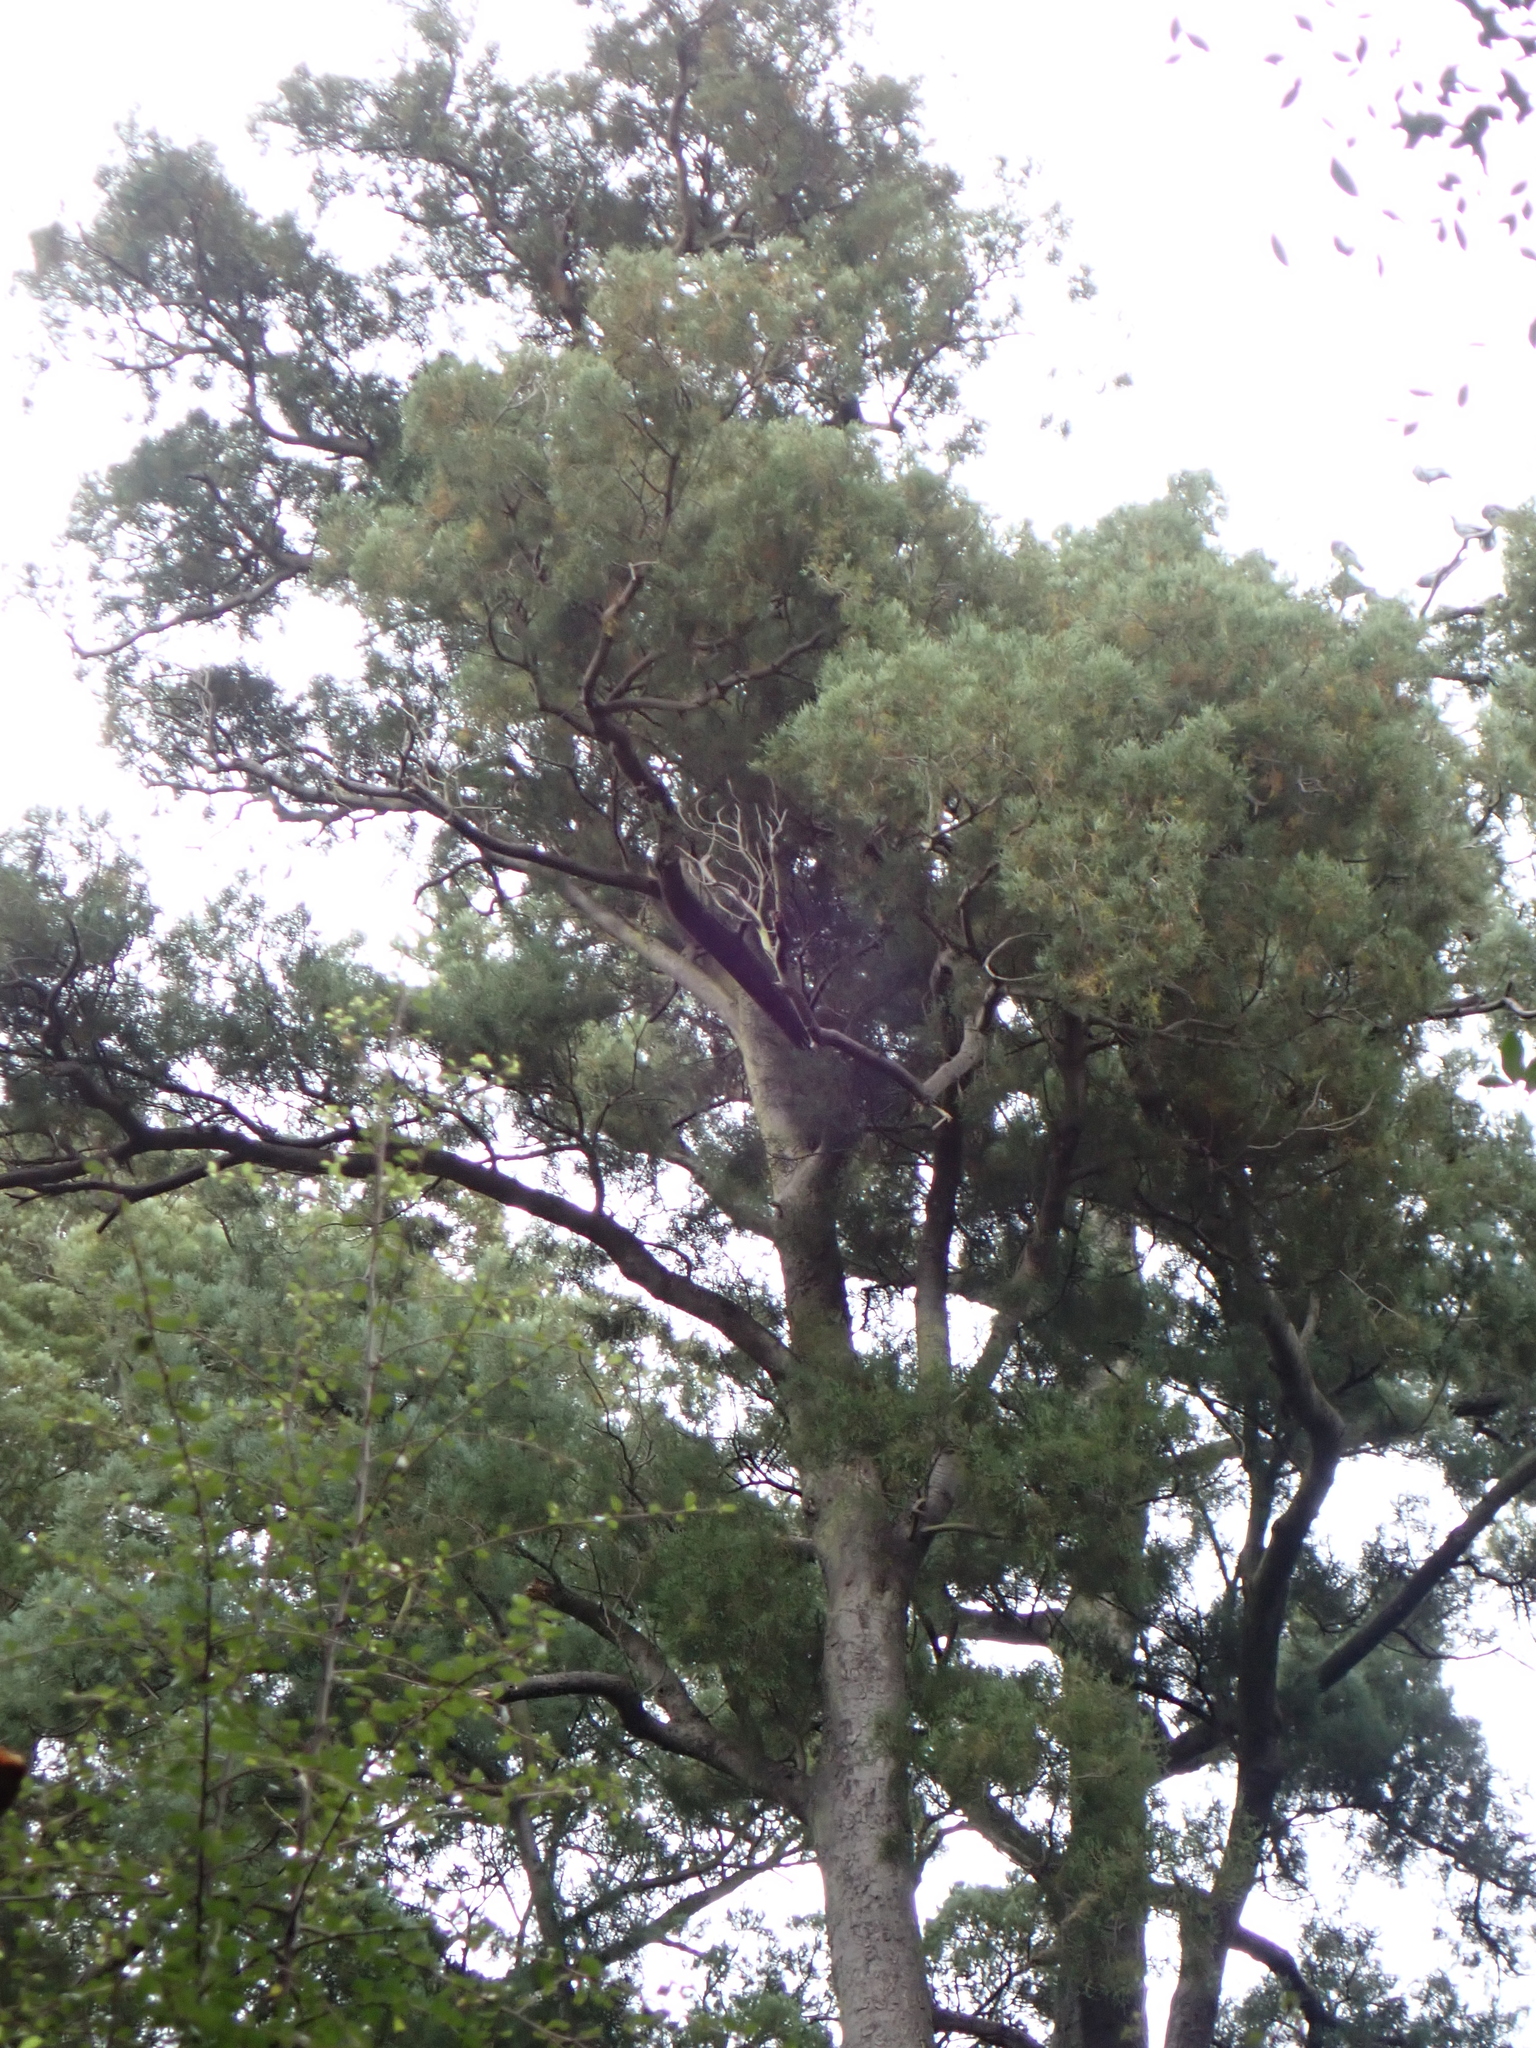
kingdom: Plantae
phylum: Tracheophyta
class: Pinopsida
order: Pinales
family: Podocarpaceae
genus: Dacrycarpus
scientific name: Dacrycarpus dacrydioides
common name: White pine
